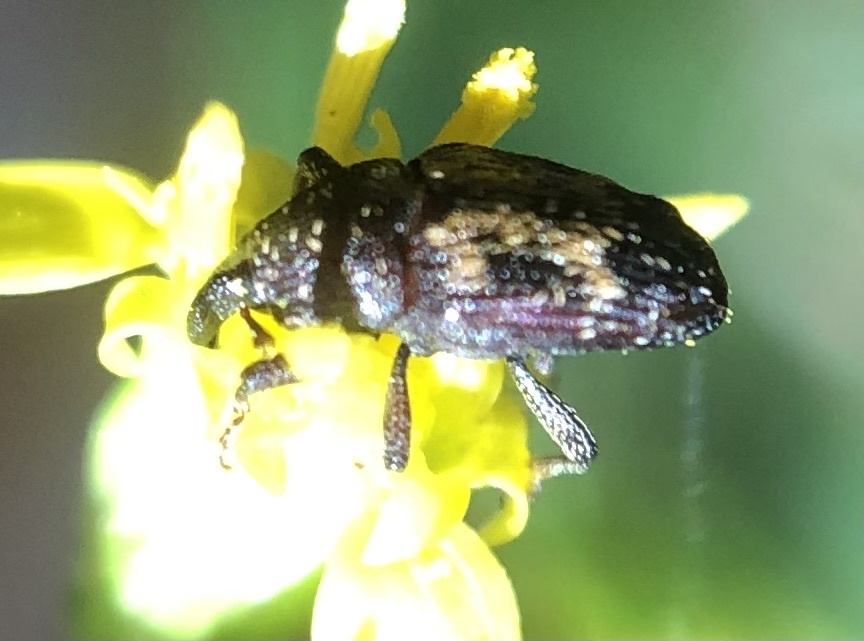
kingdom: Animalia
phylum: Arthropoda
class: Insecta
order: Coleoptera
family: Curculionidae
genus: Glyptobaris
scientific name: Glyptobaris lecontei
